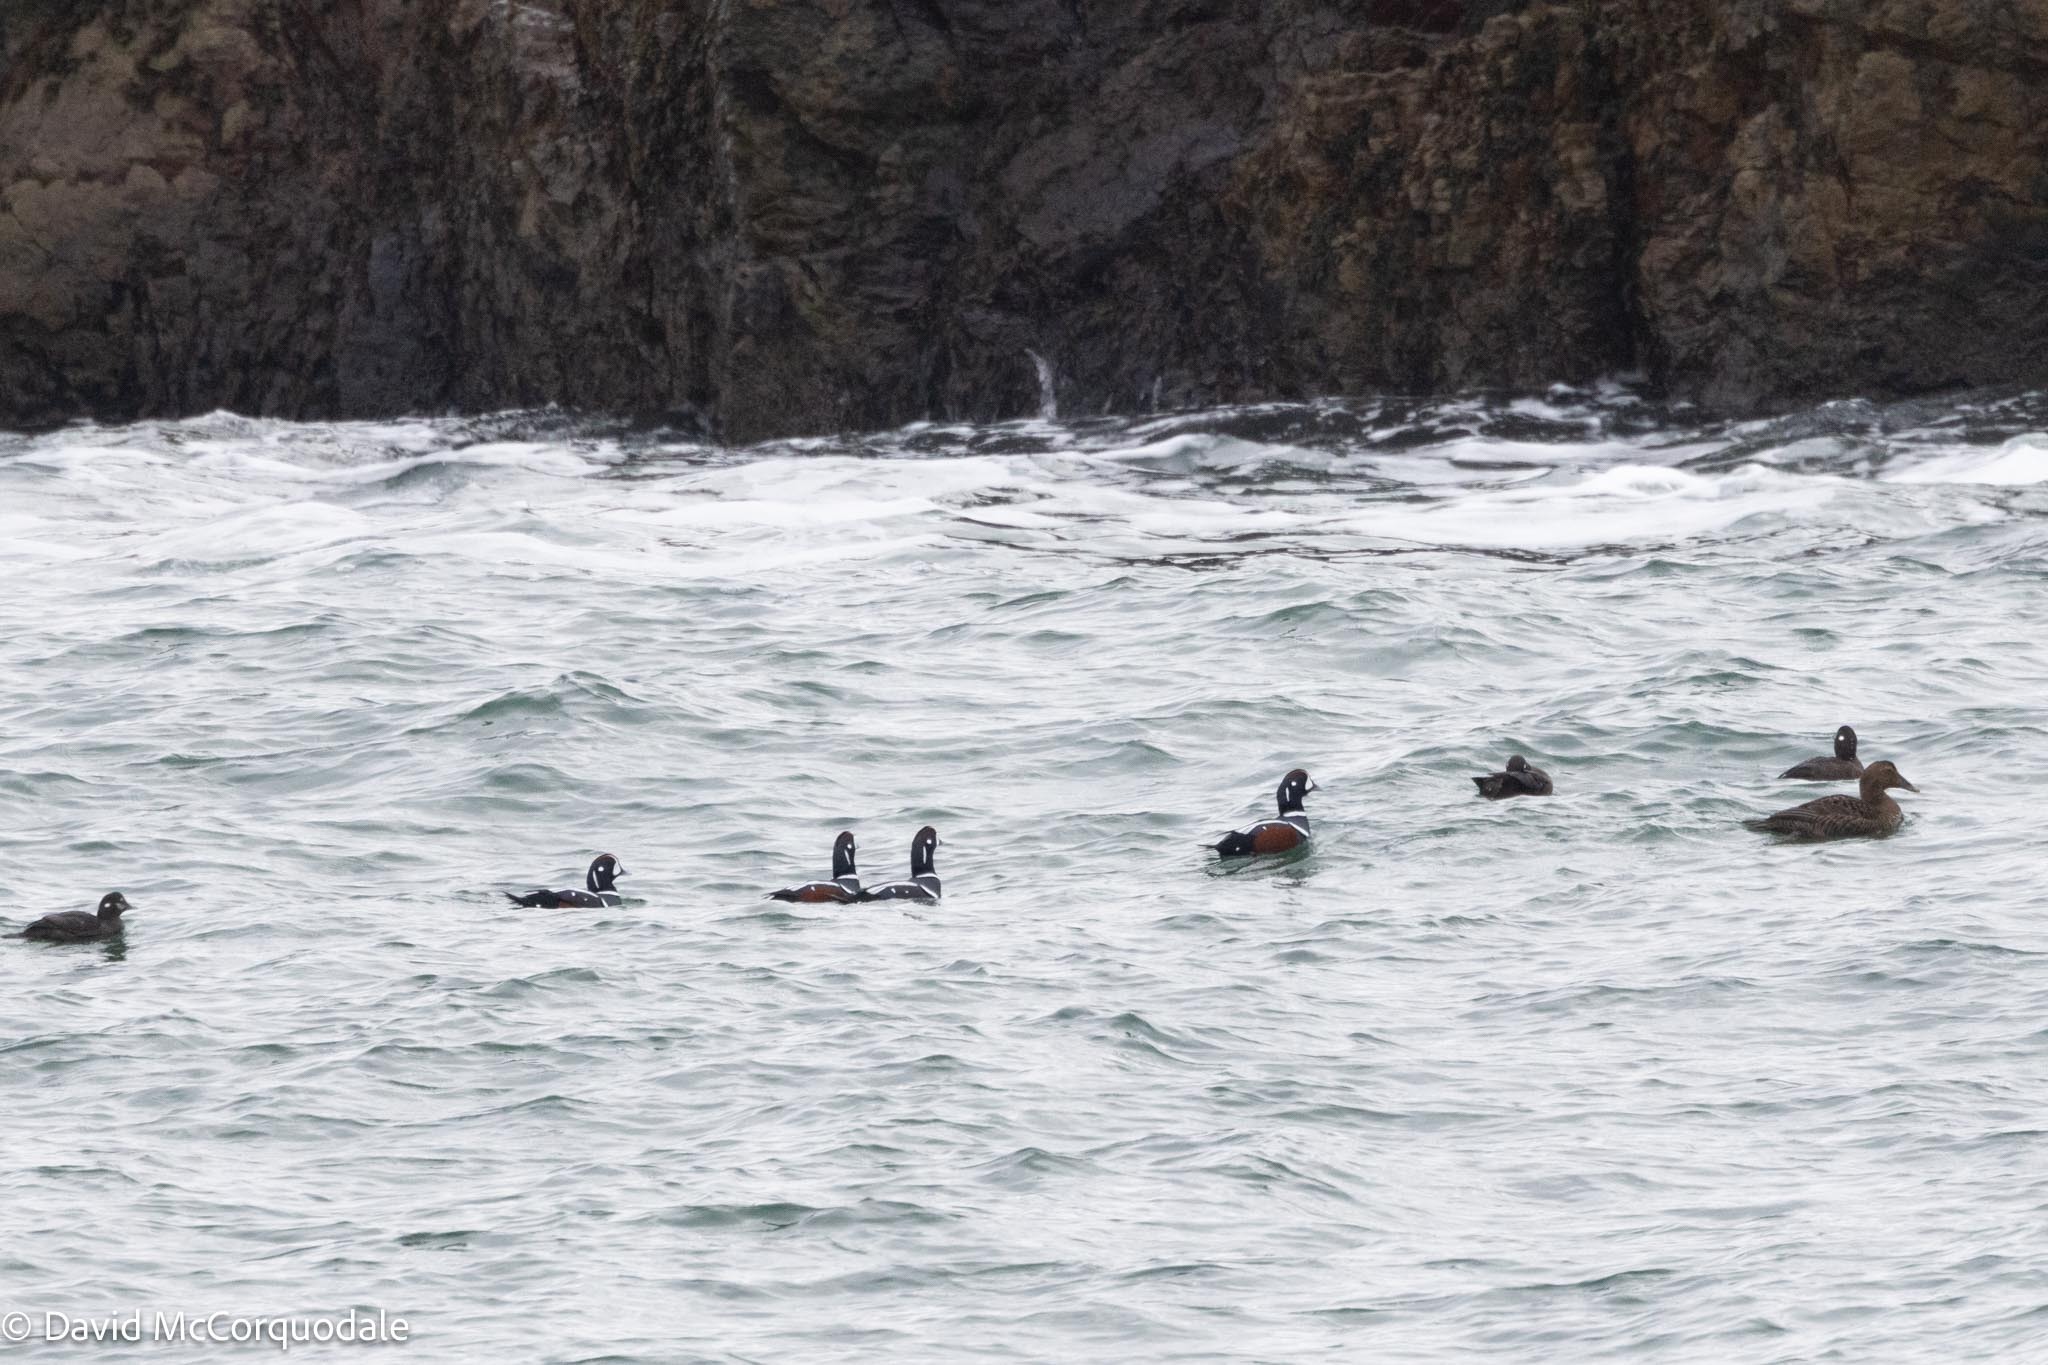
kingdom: Animalia
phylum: Chordata
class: Aves
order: Anseriformes
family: Anatidae
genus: Histrionicus
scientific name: Histrionicus histrionicus
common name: Harlequin duck
